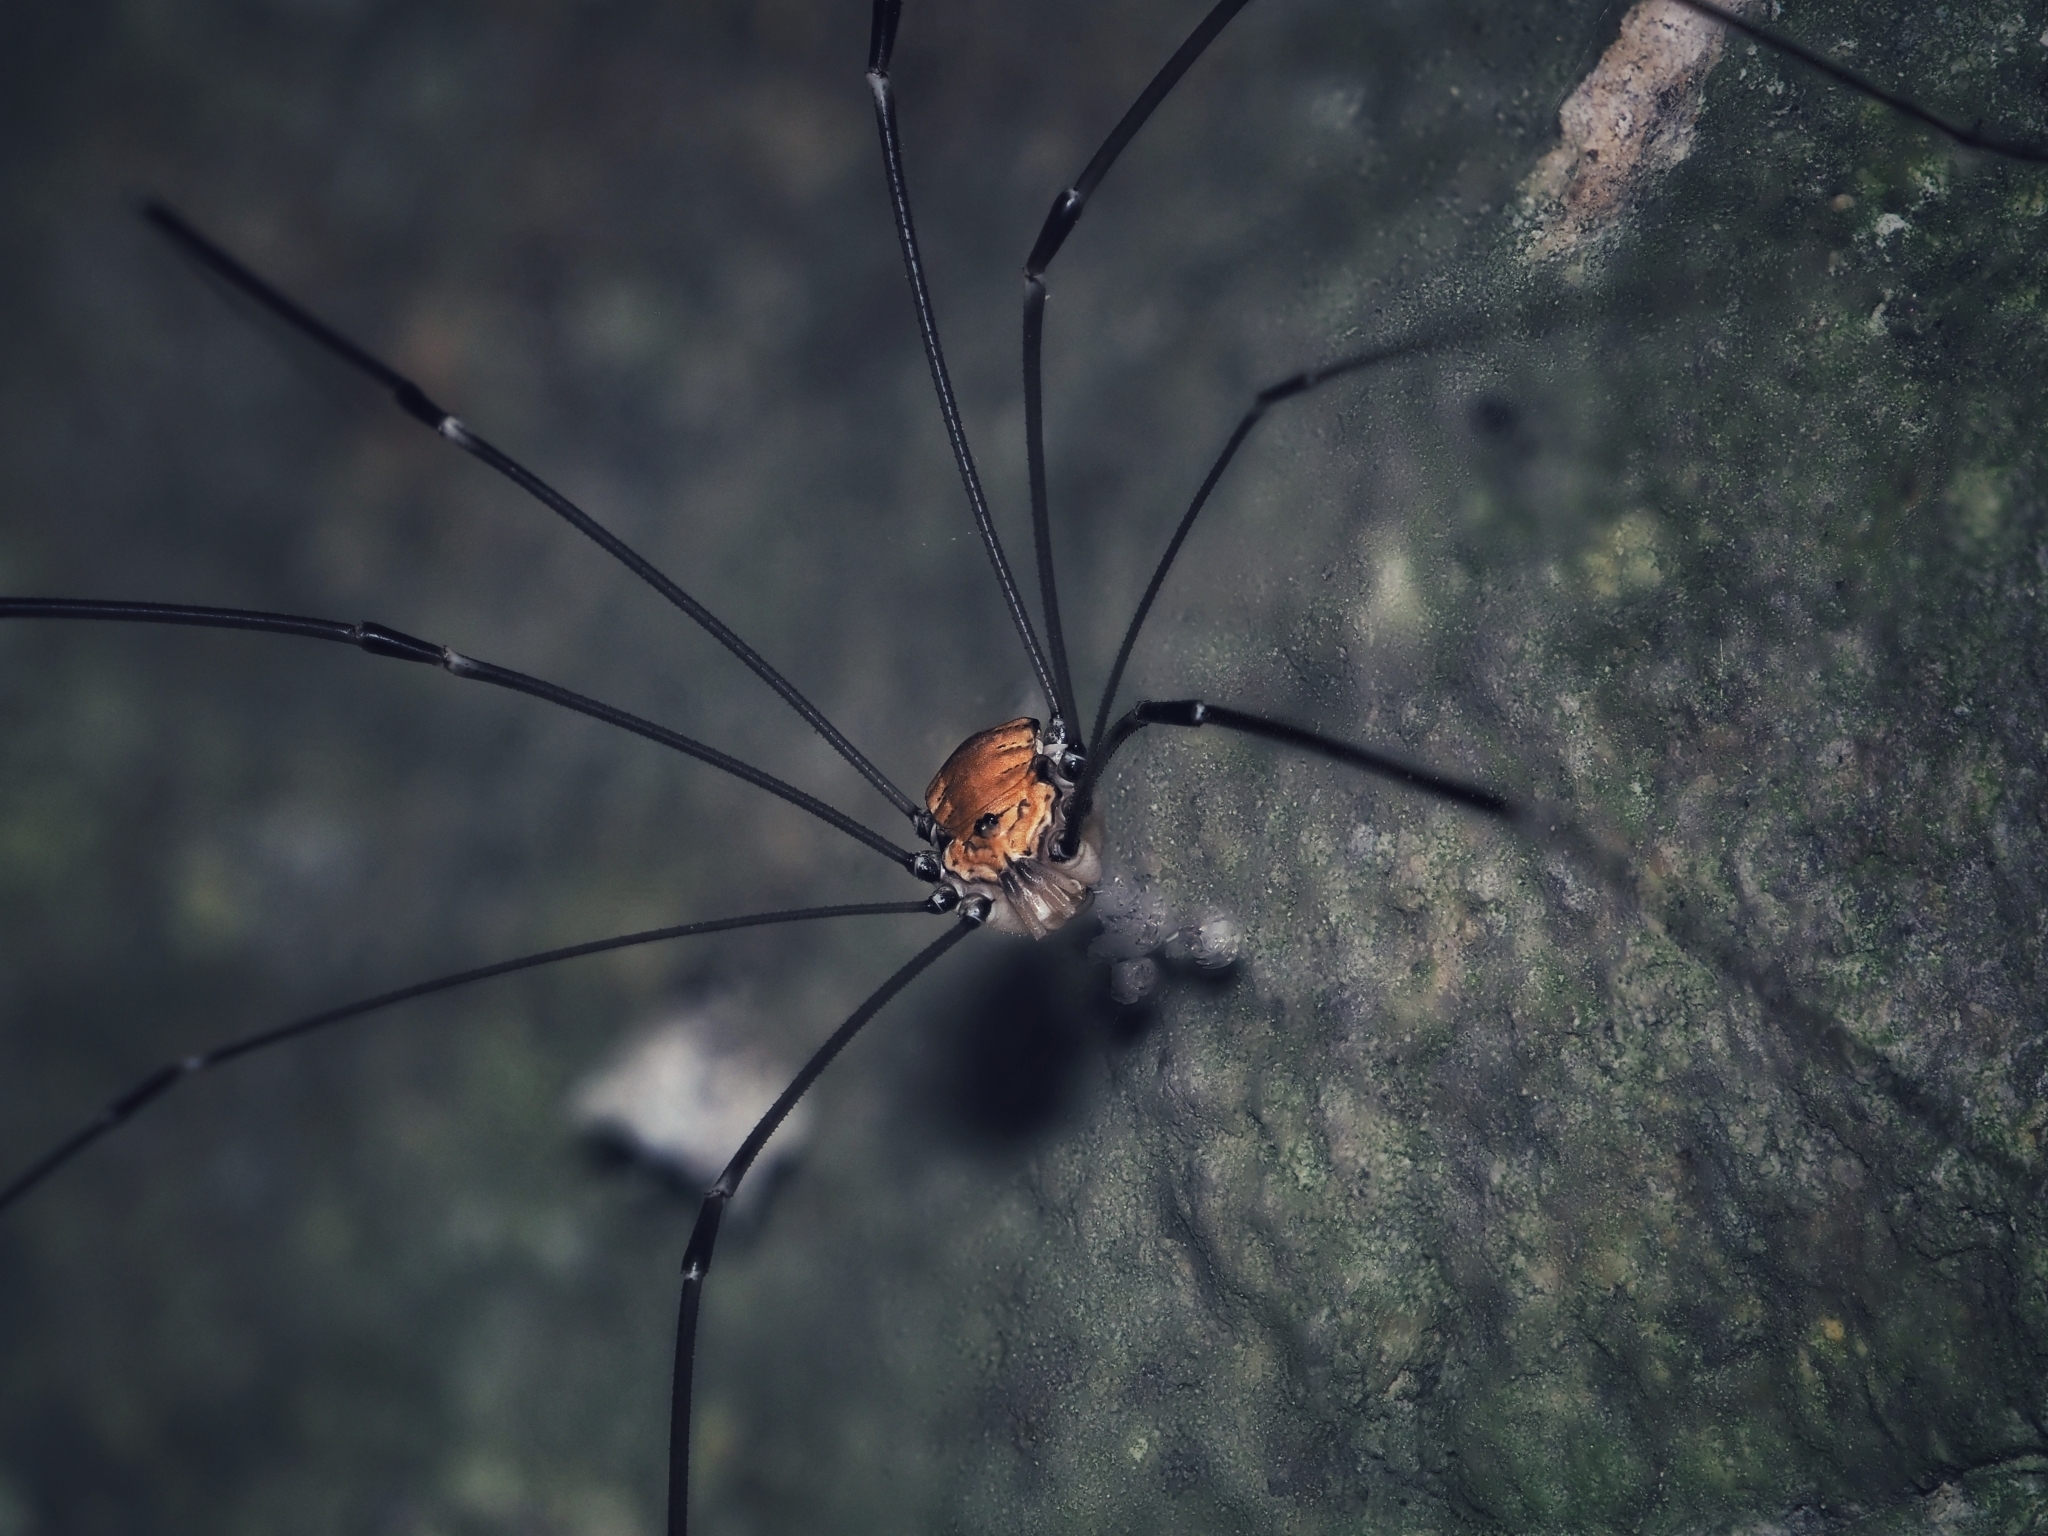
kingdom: Animalia
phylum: Arthropoda
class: Arachnida
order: Opiliones
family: Sclerosomatidae
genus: Leiobunum
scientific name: Leiobunum limbatum
